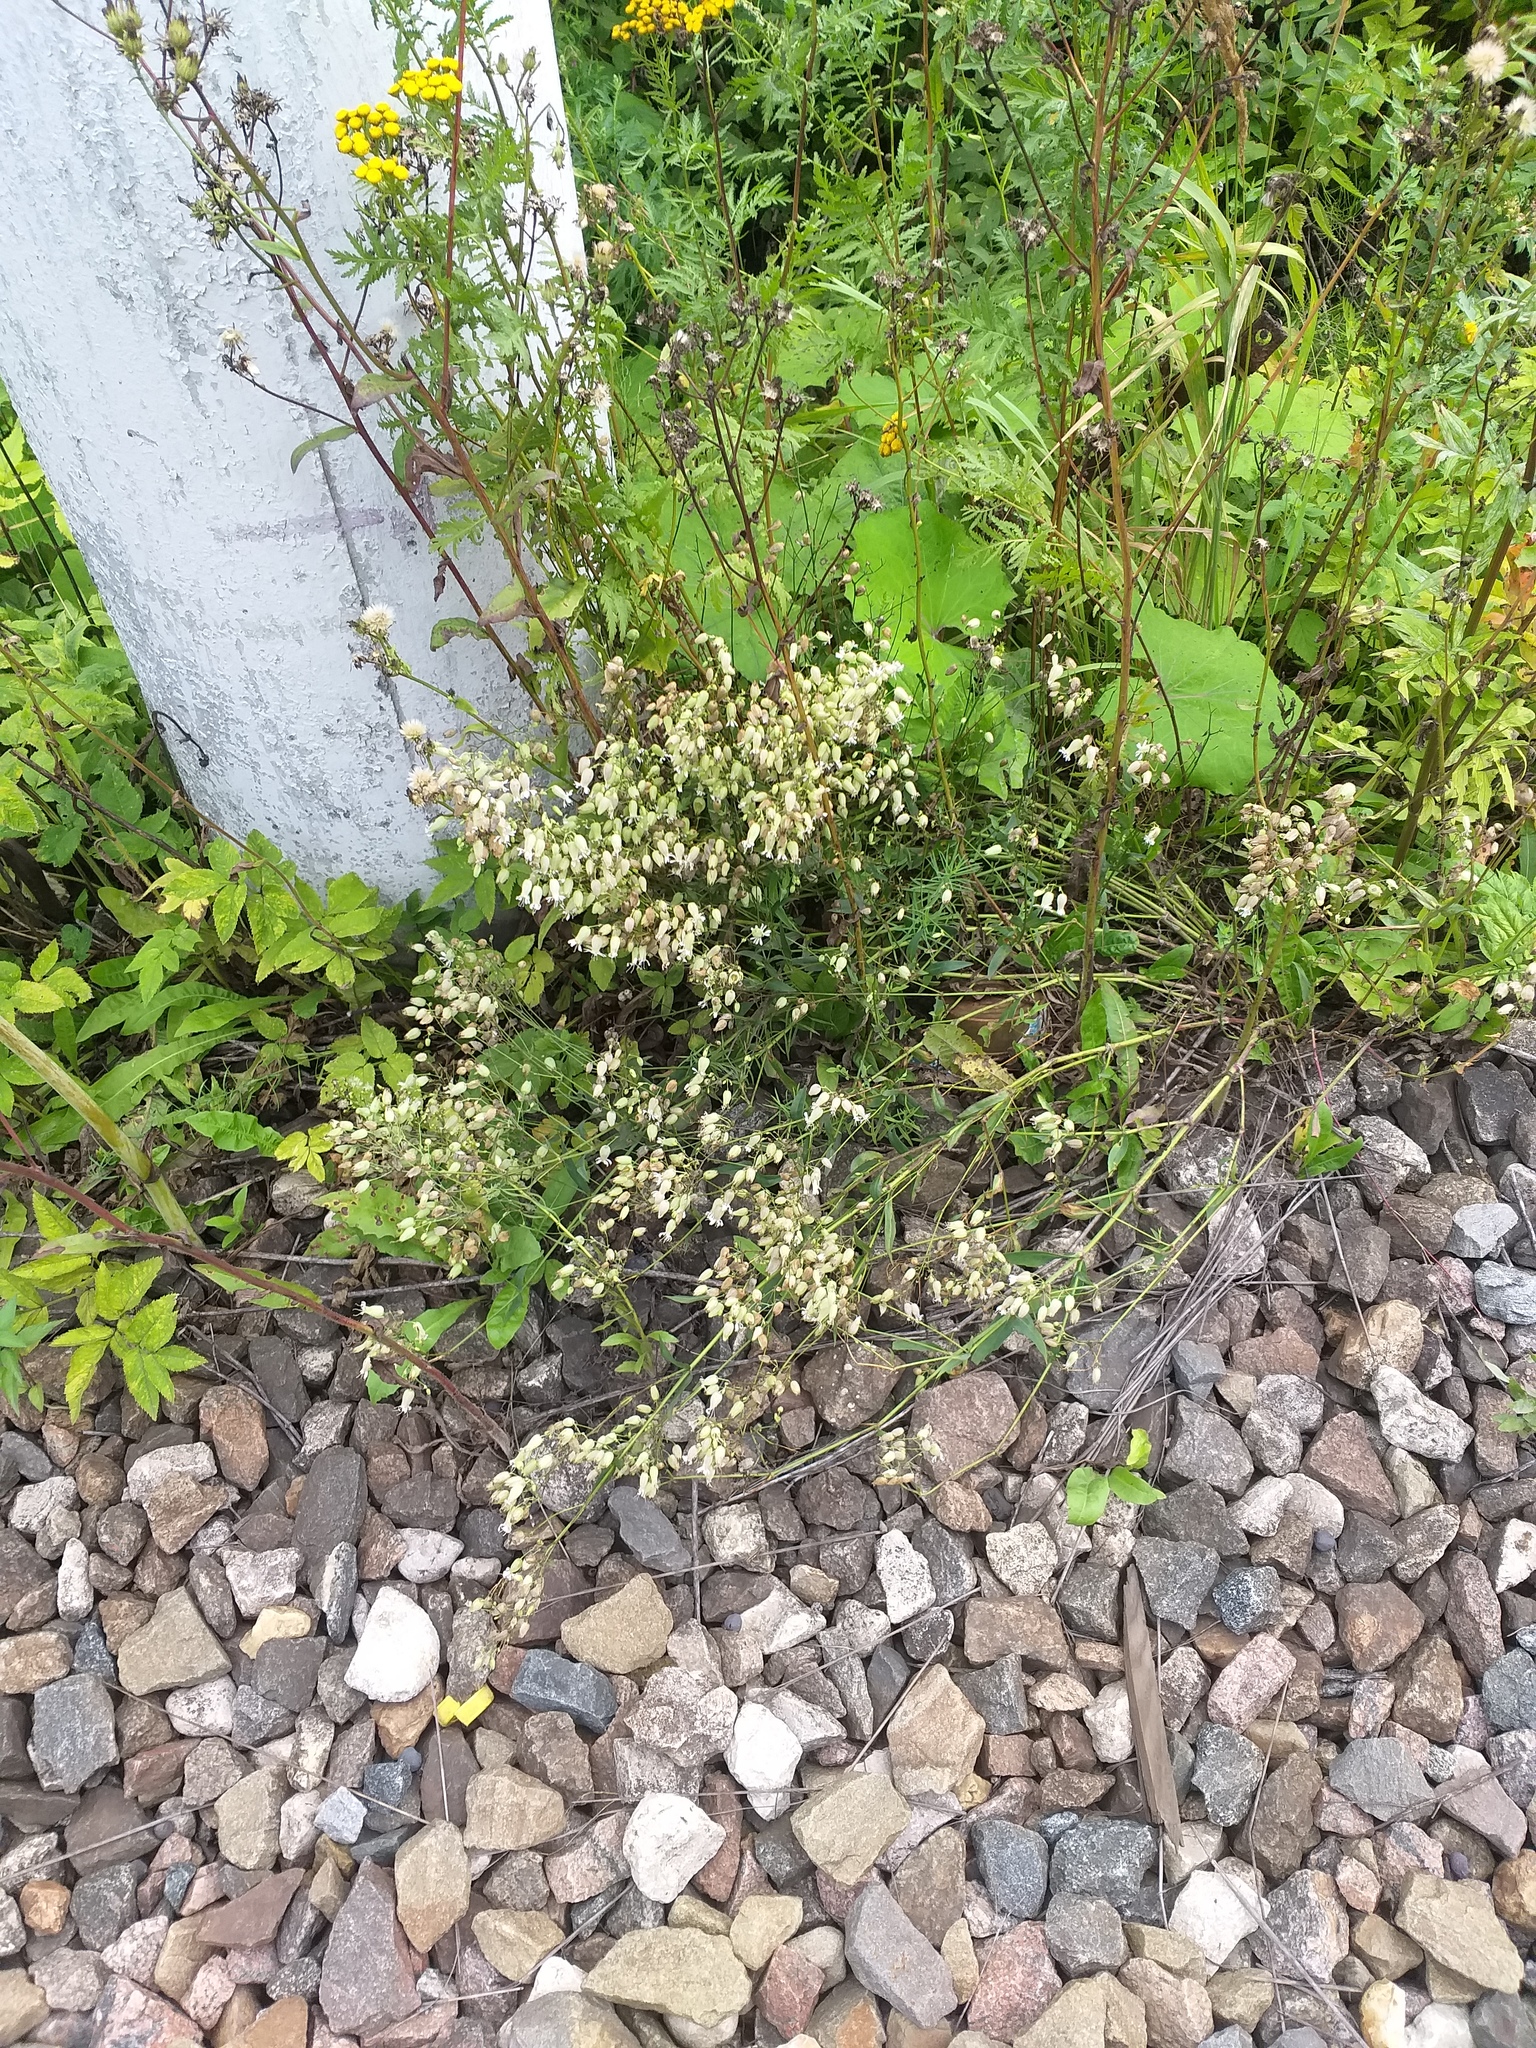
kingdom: Plantae
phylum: Tracheophyta
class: Magnoliopsida
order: Caryophyllales
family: Caryophyllaceae
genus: Silene
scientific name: Silene vulgaris
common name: Bladder campion
